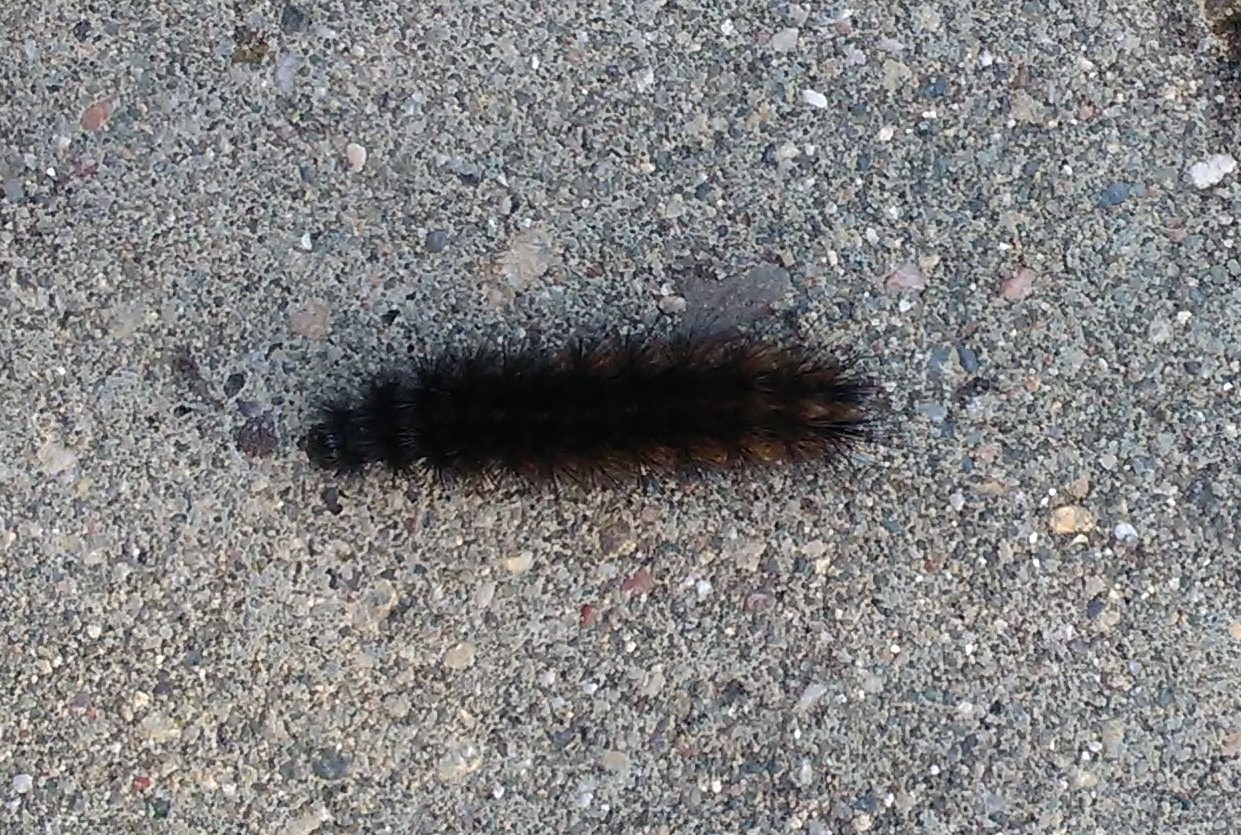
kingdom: Animalia
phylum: Arthropoda
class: Insecta
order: Lepidoptera
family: Erebidae
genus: Phragmatobia
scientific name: Phragmatobia fuliginosa
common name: Ruby tiger
